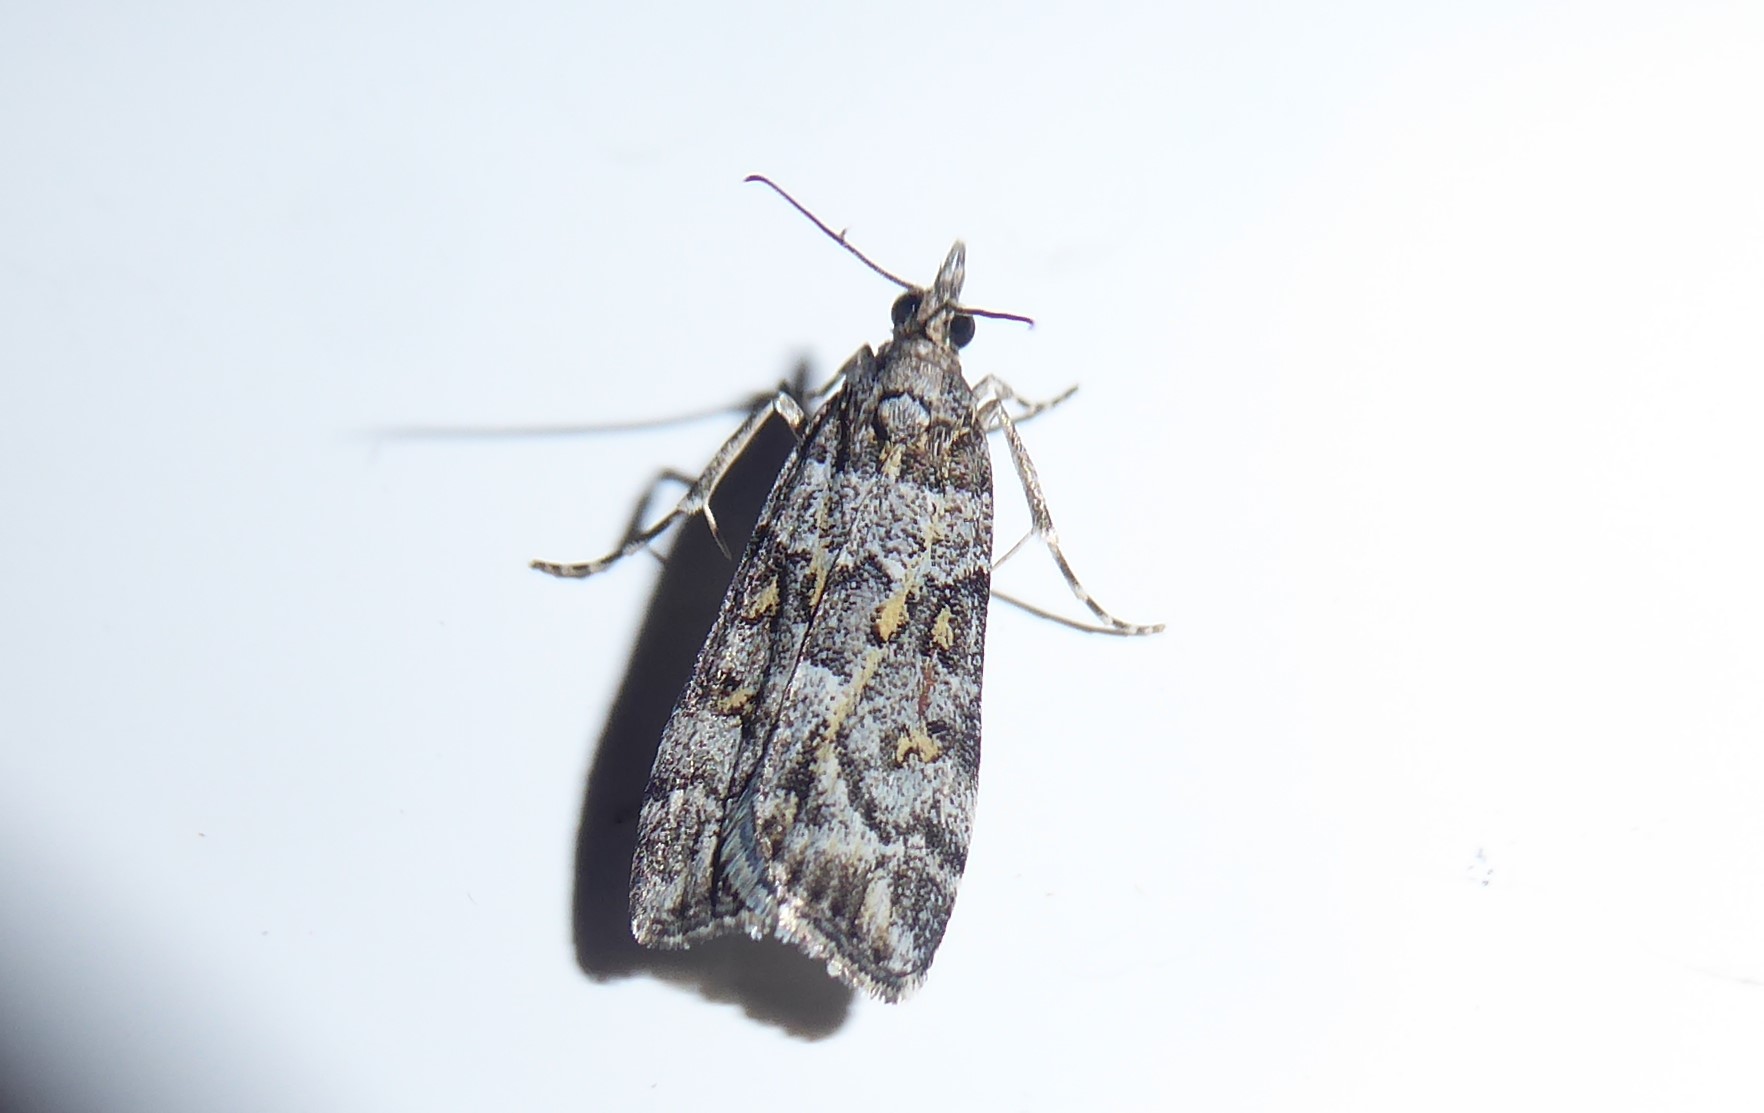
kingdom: Animalia
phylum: Arthropoda
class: Insecta
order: Lepidoptera
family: Crambidae
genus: Eudonia
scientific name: Eudonia diphtheralis
